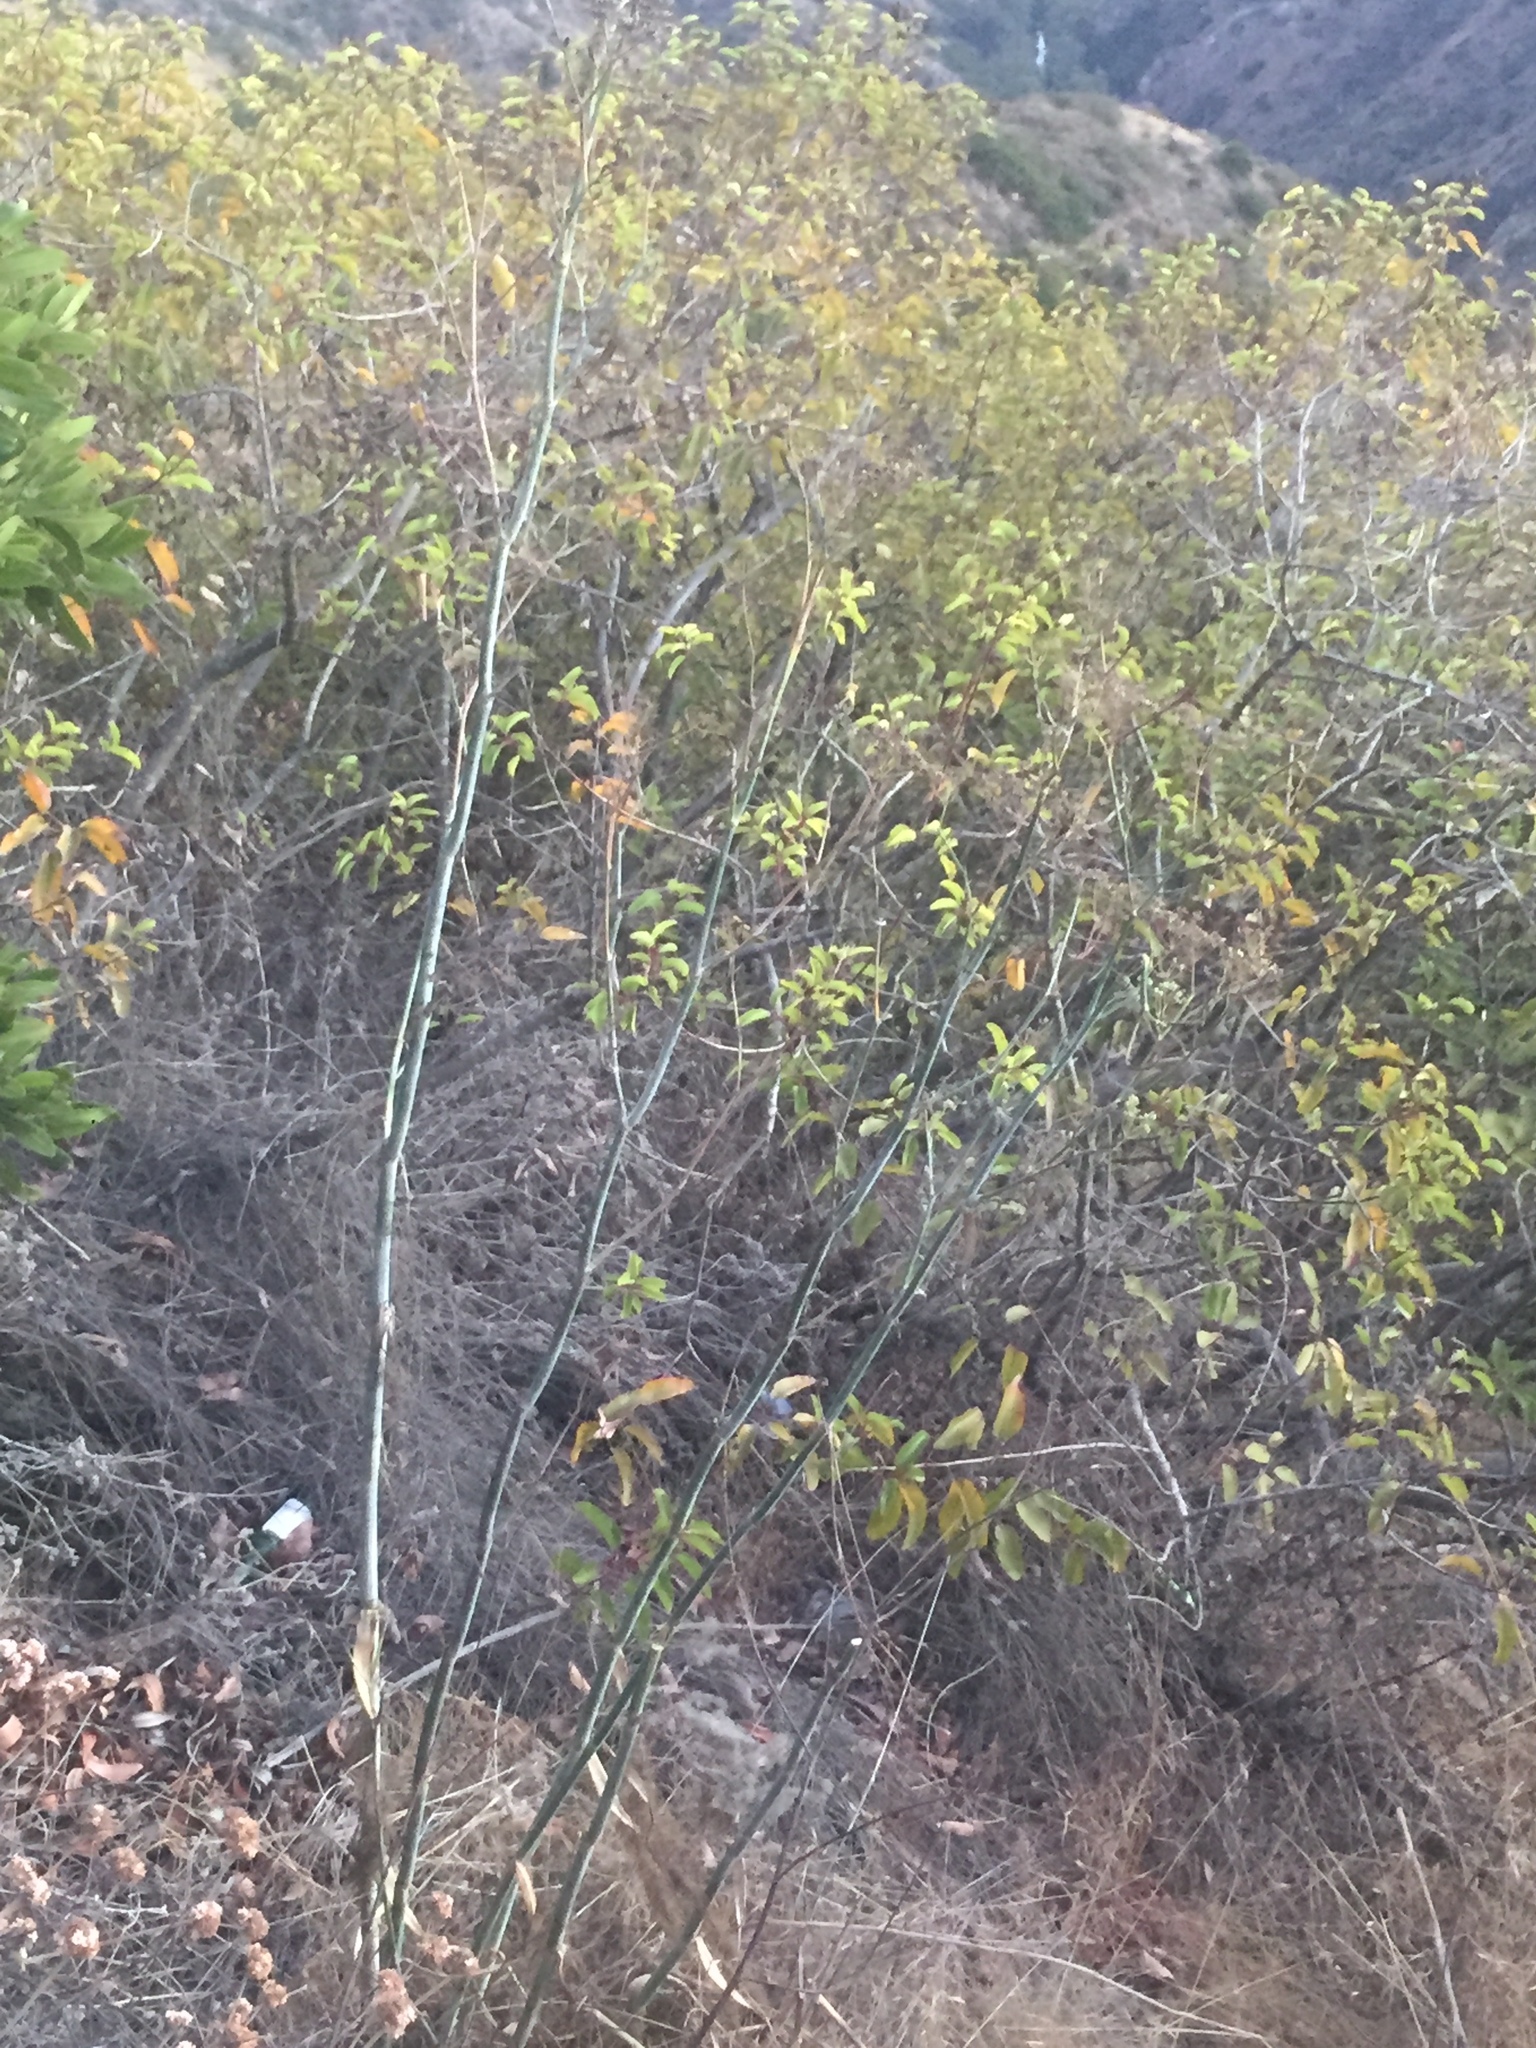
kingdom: Plantae
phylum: Tracheophyta
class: Magnoliopsida
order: Apiales
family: Apiaceae
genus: Foeniculum
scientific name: Foeniculum vulgare
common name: Fennel
